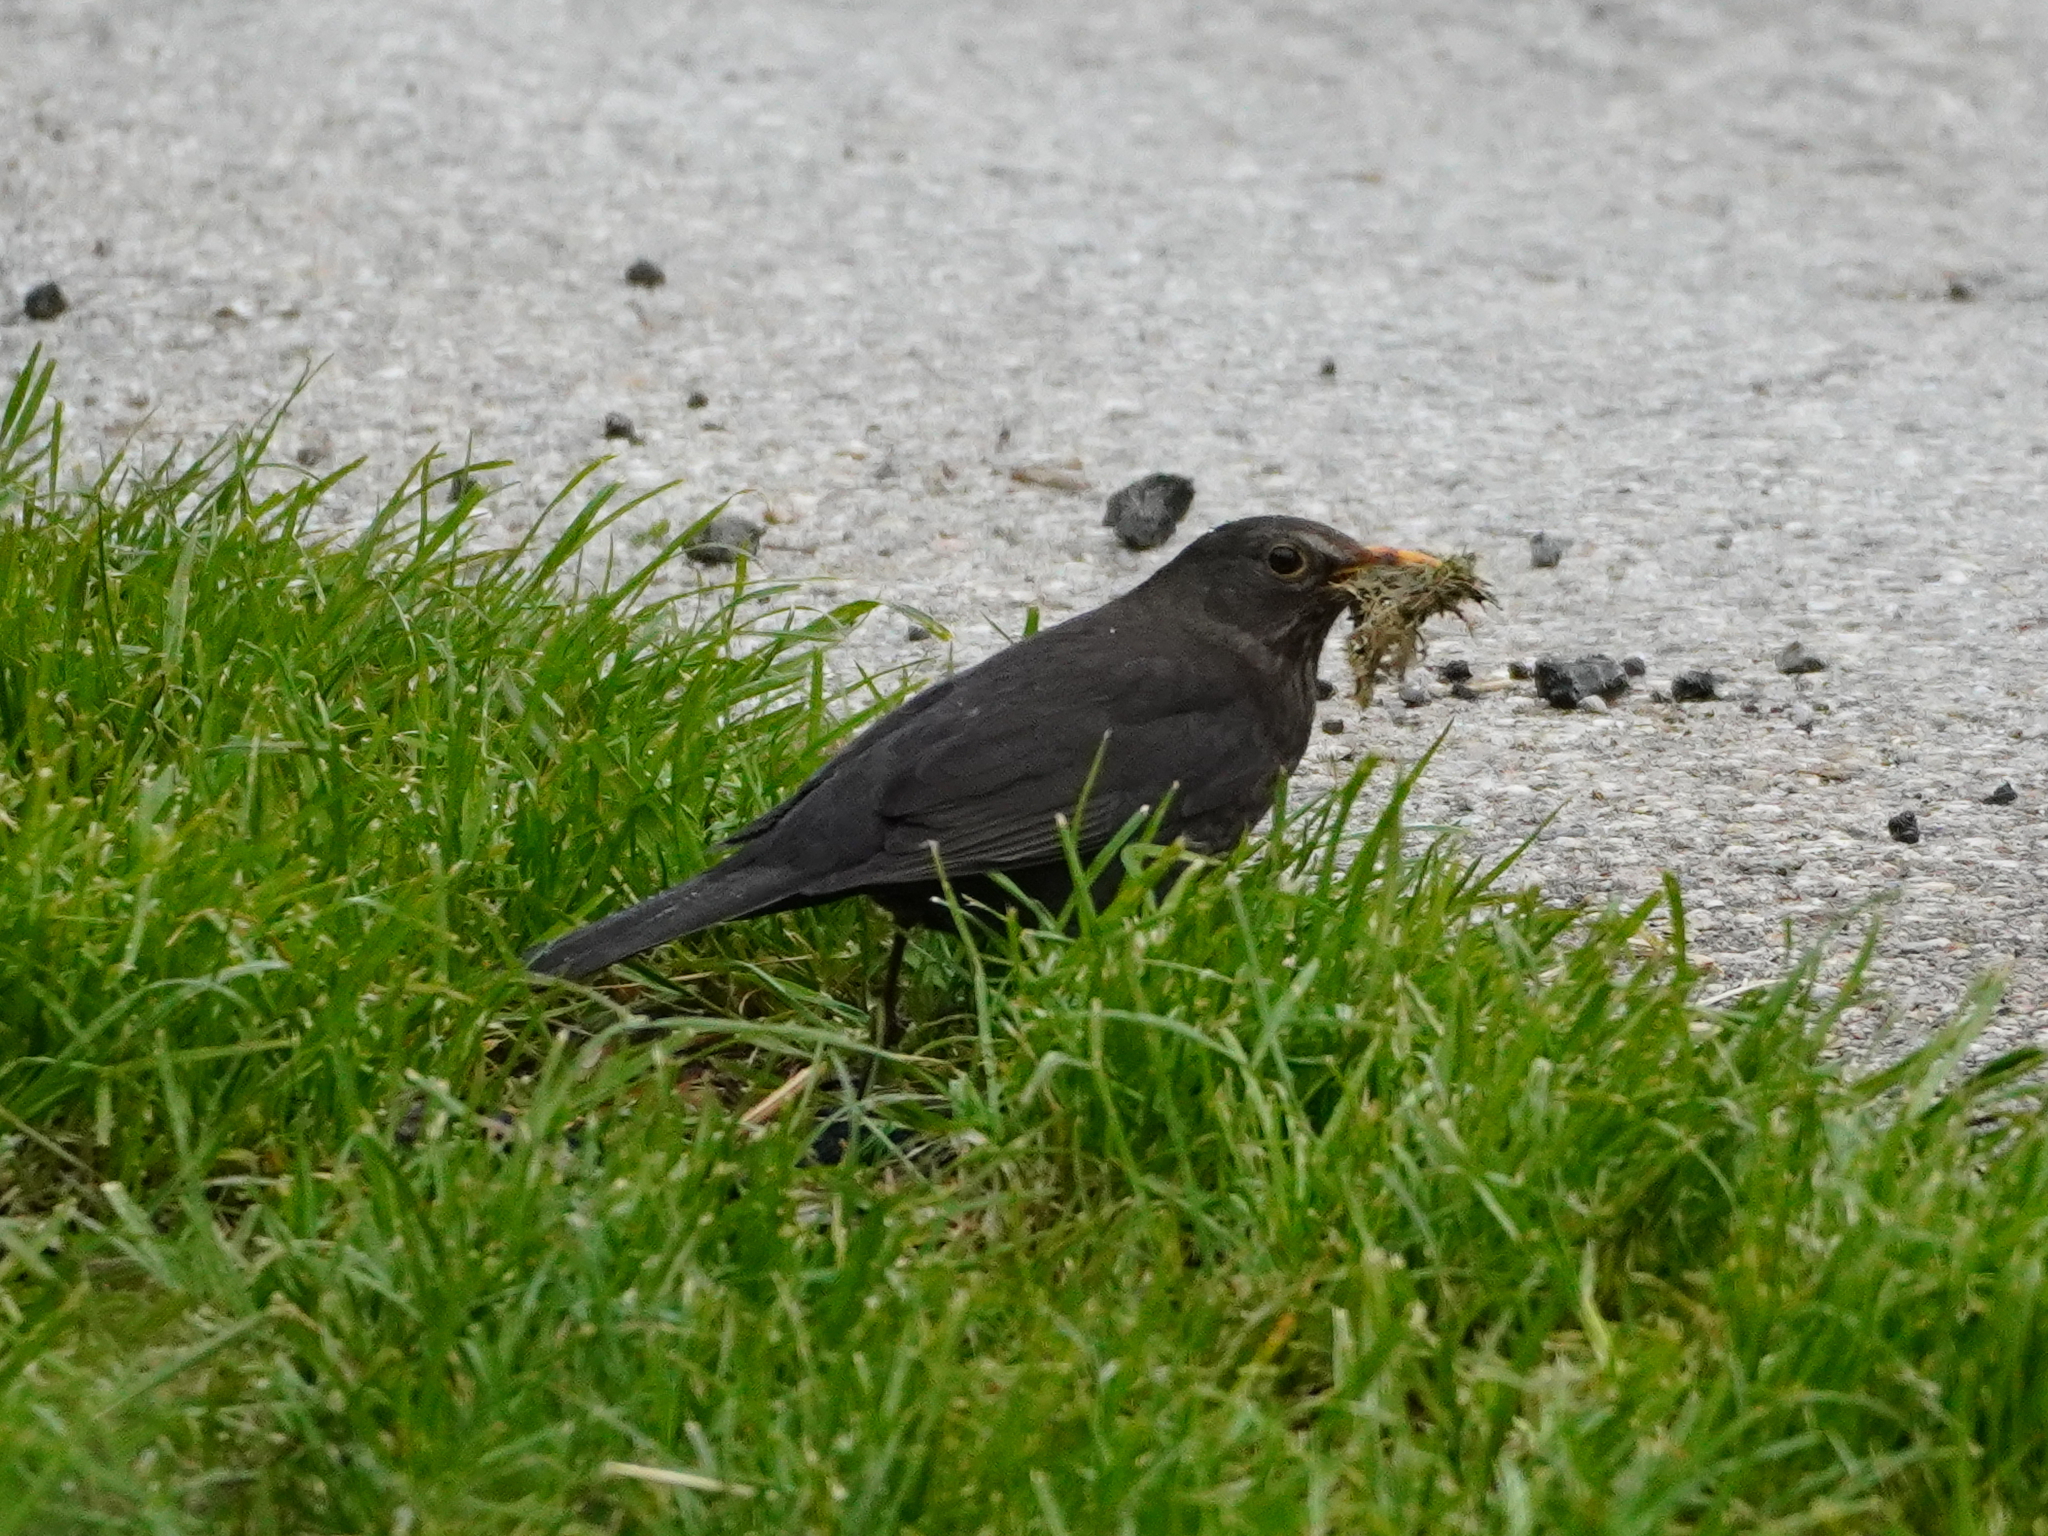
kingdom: Animalia
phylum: Chordata
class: Aves
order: Passeriformes
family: Turdidae
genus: Turdus
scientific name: Turdus merula
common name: Common blackbird
